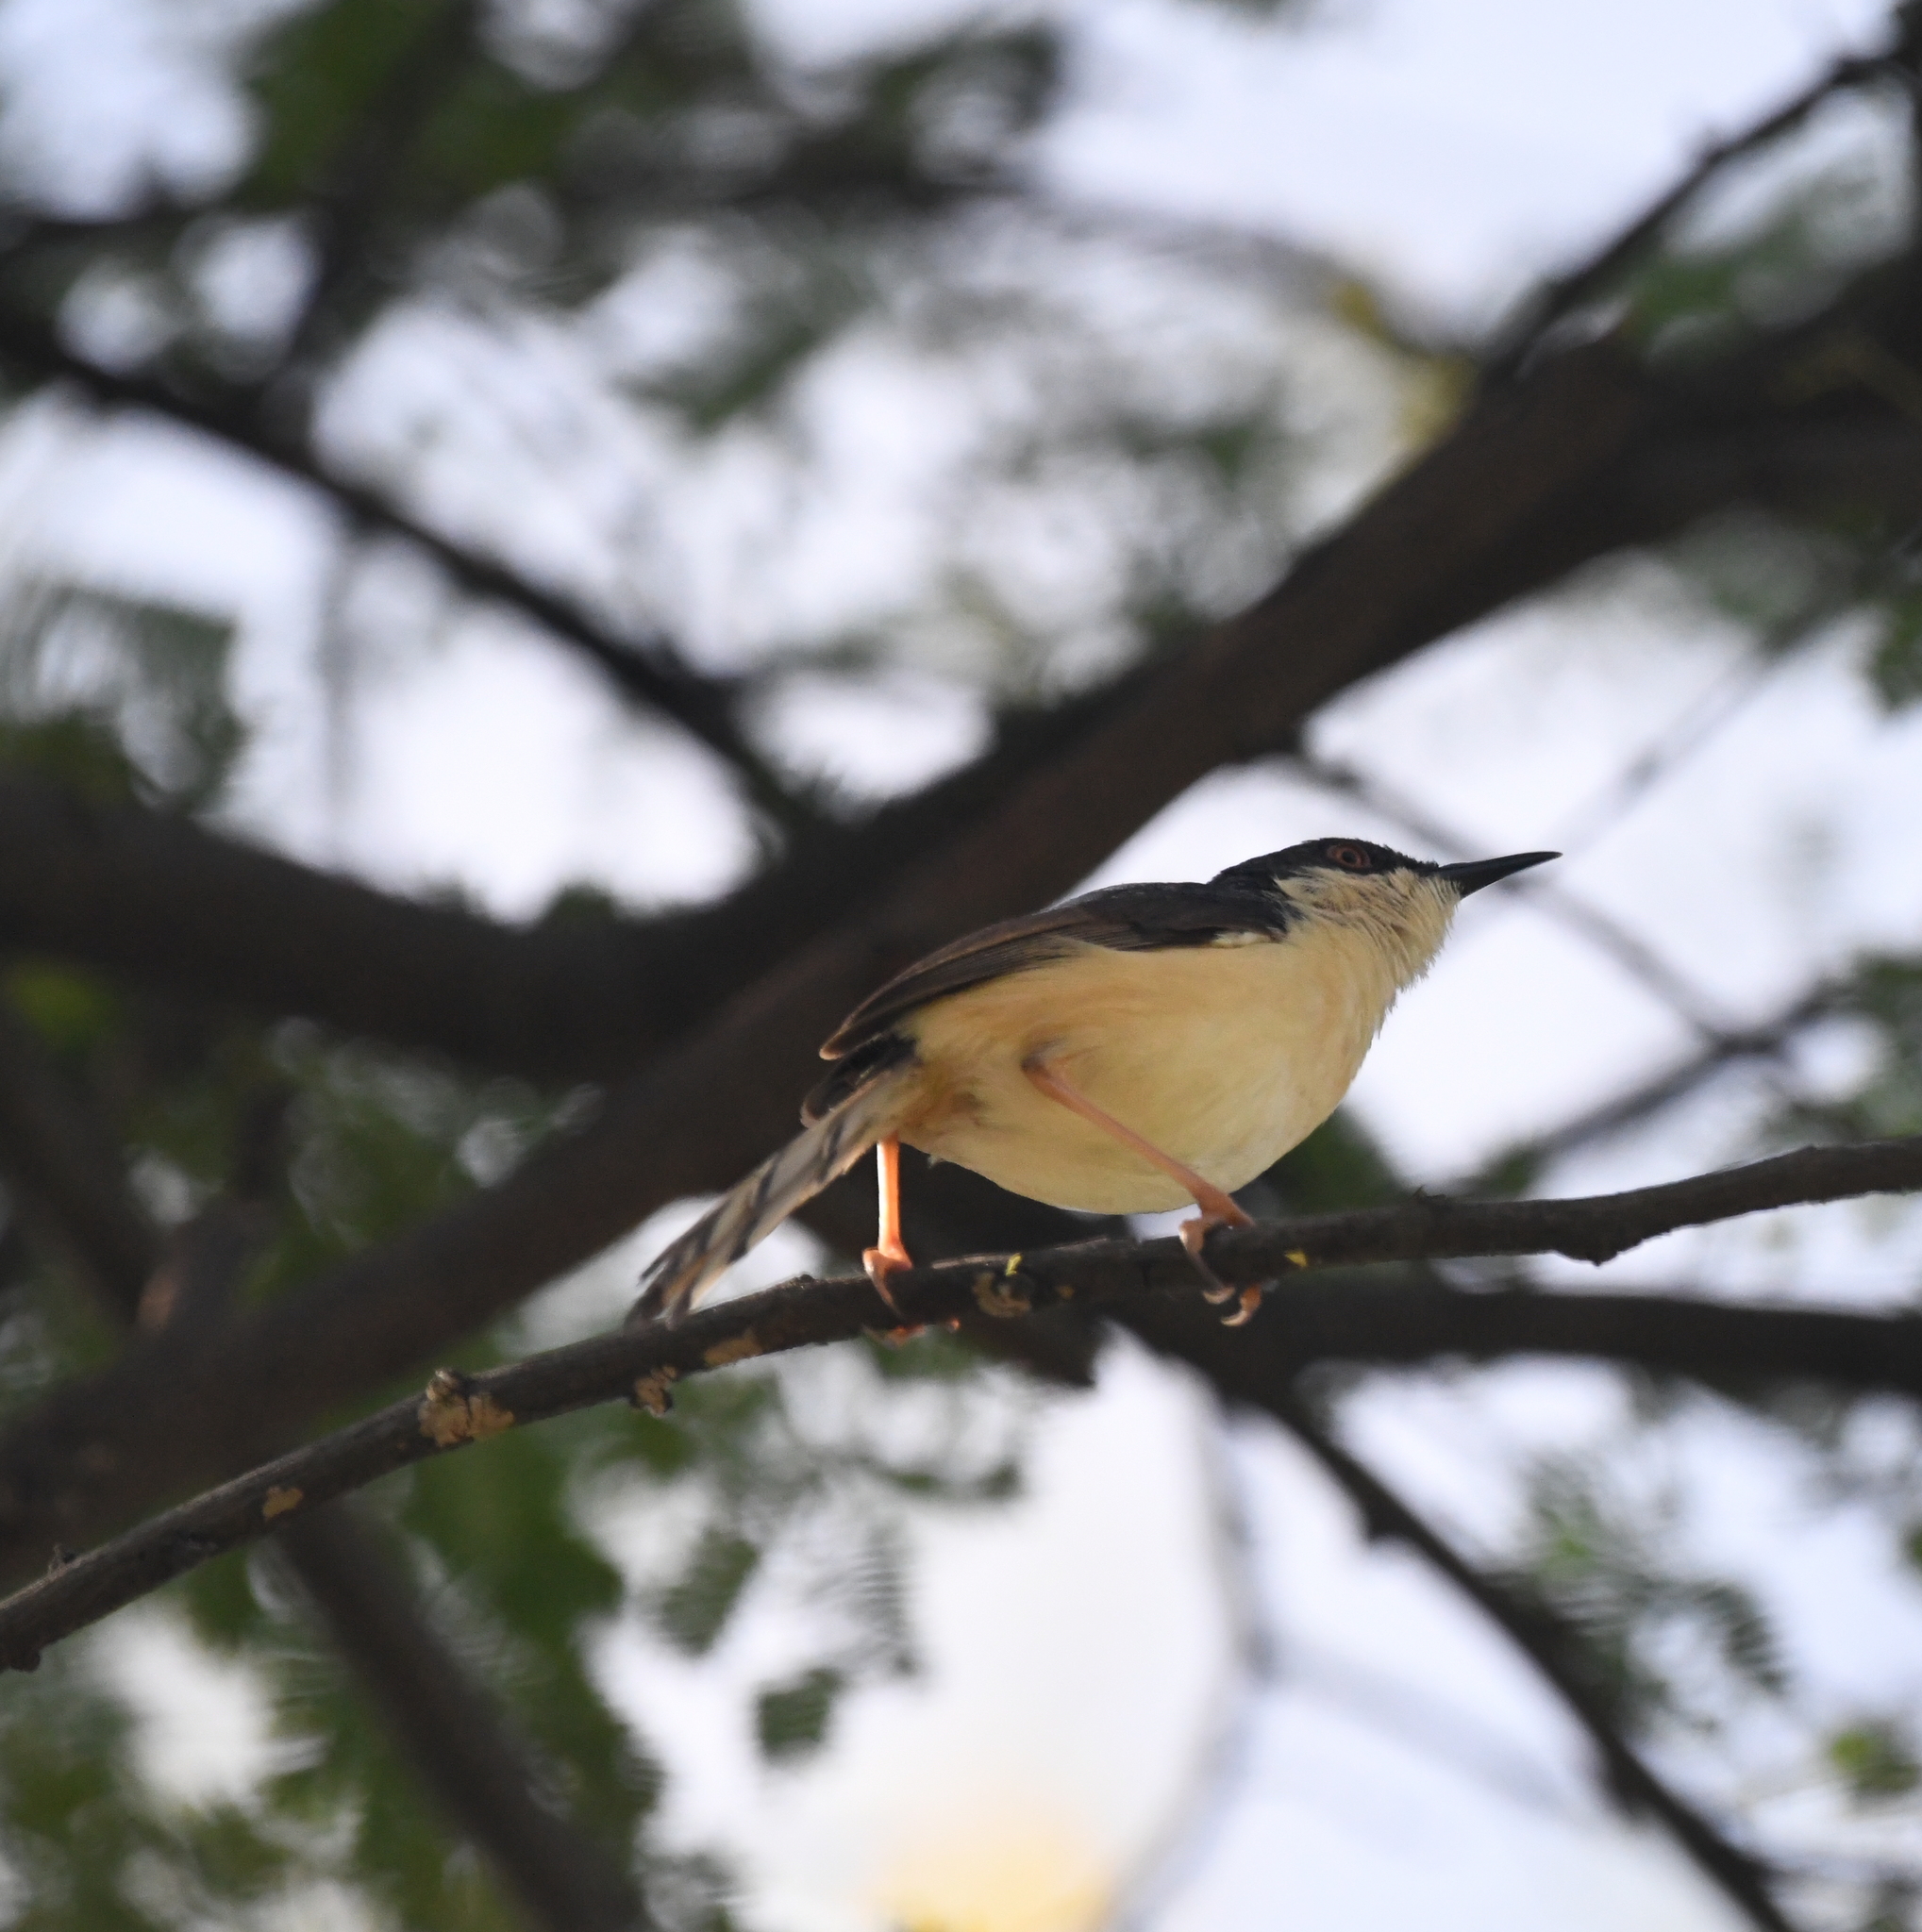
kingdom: Animalia
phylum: Chordata
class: Aves
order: Passeriformes
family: Cisticolidae
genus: Prinia
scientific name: Prinia socialis
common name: Ashy prinia
